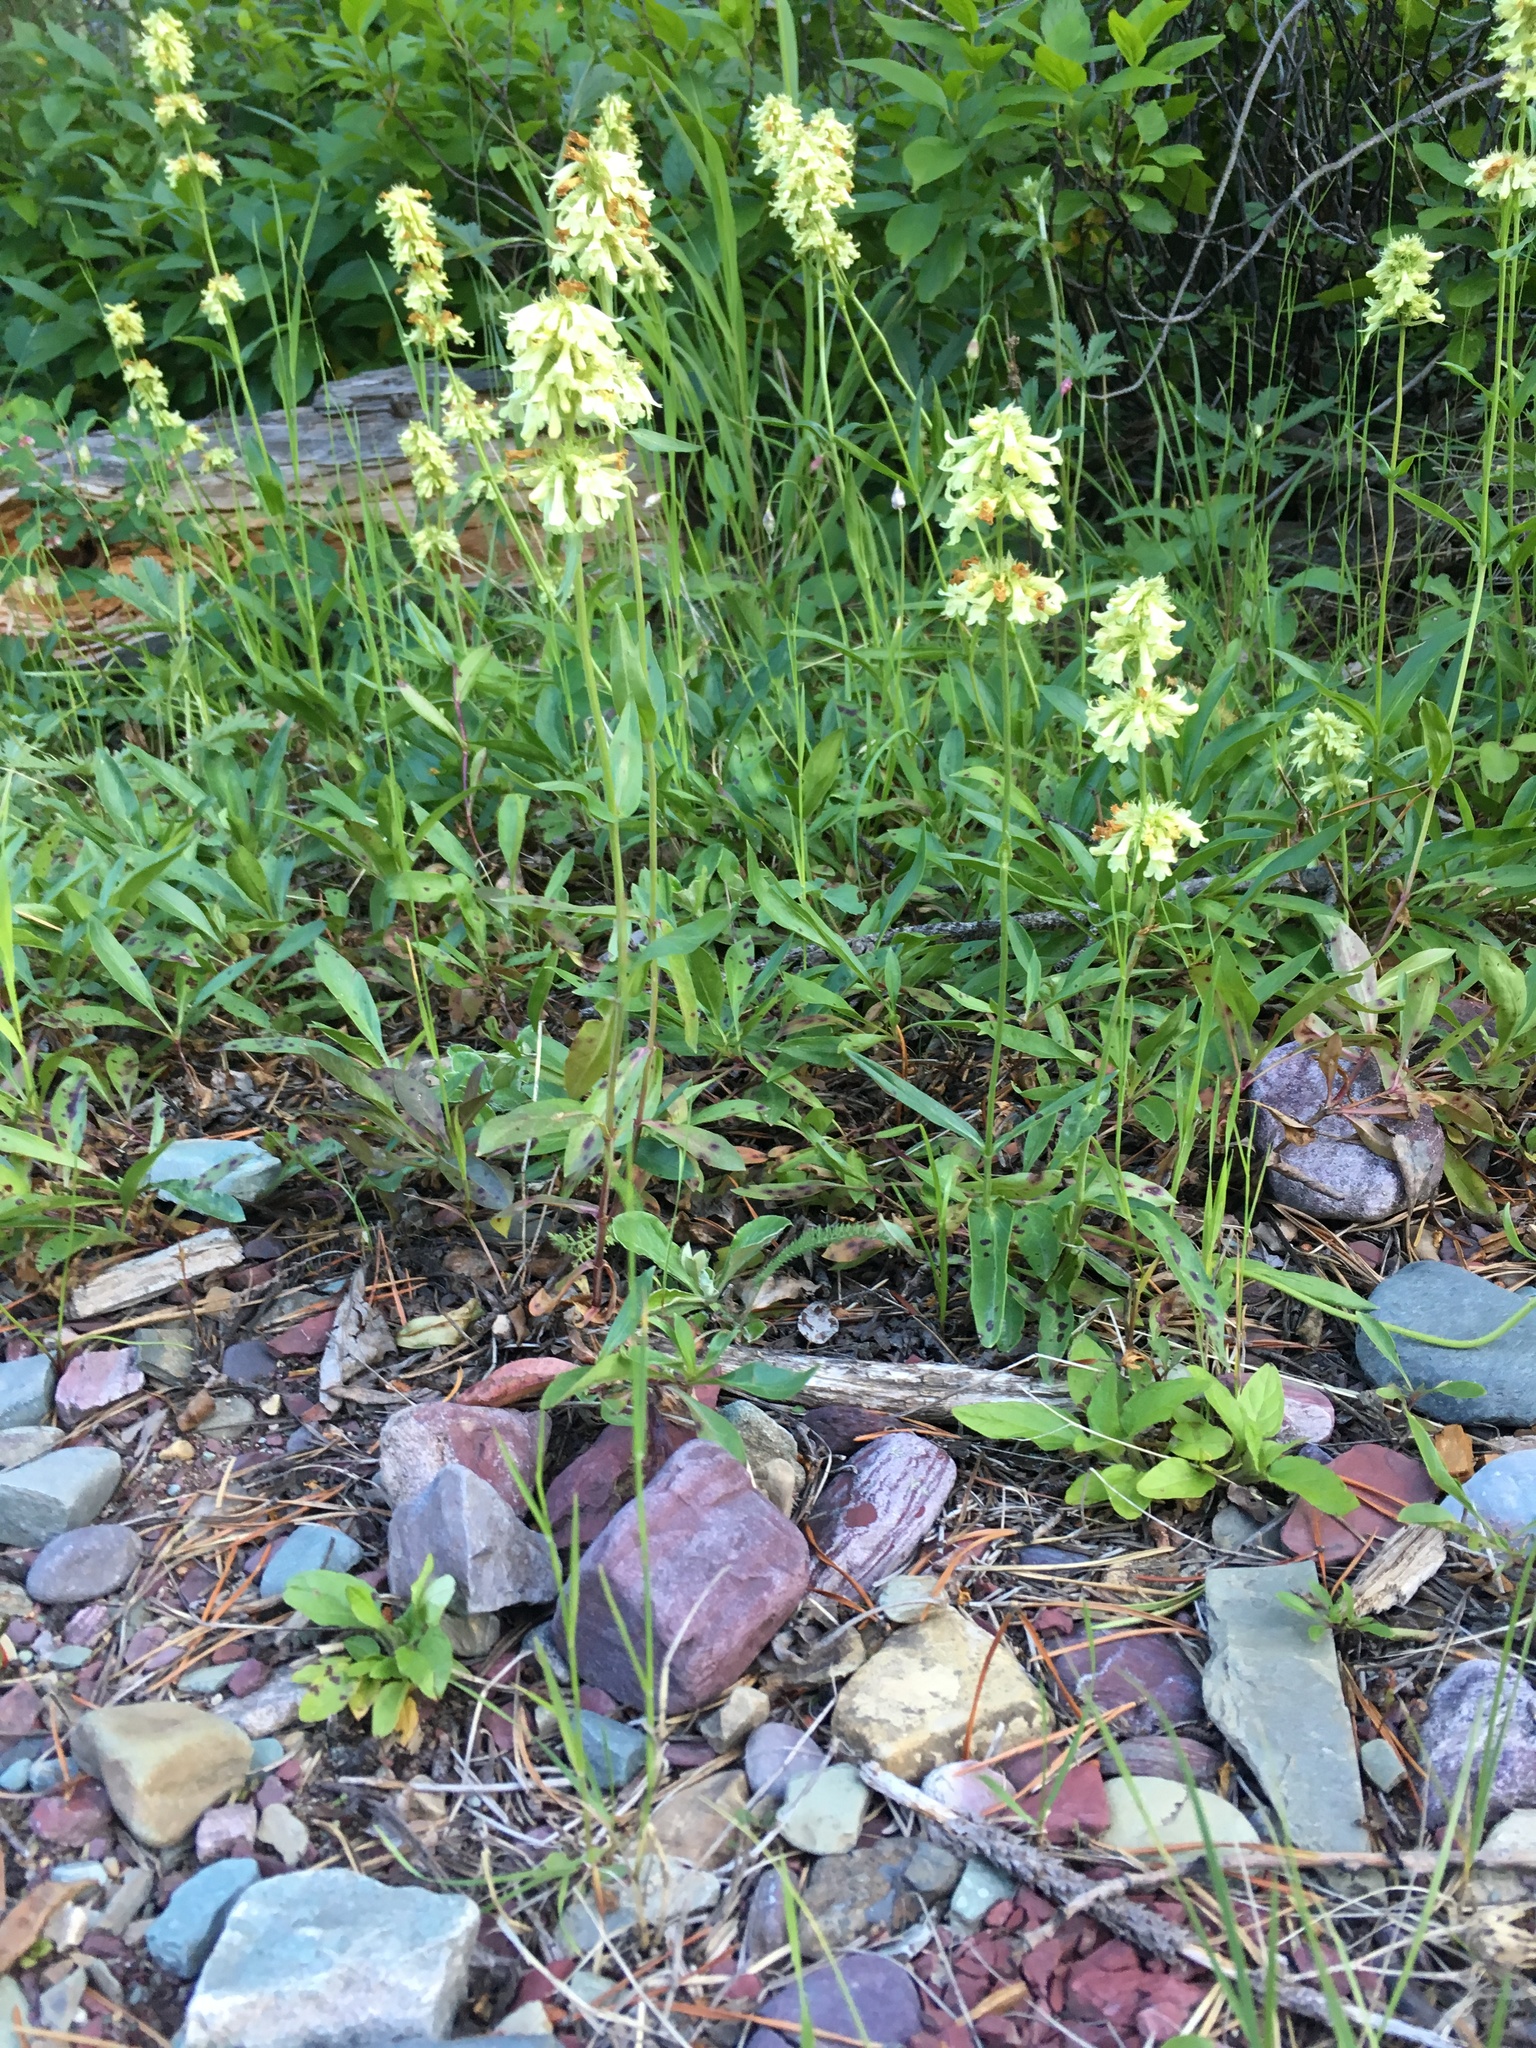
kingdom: Plantae
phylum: Tracheophyta
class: Magnoliopsida
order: Lamiales
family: Plantaginaceae
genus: Penstemon
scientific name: Penstemon confertus
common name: Lesser yellow beardtongue
